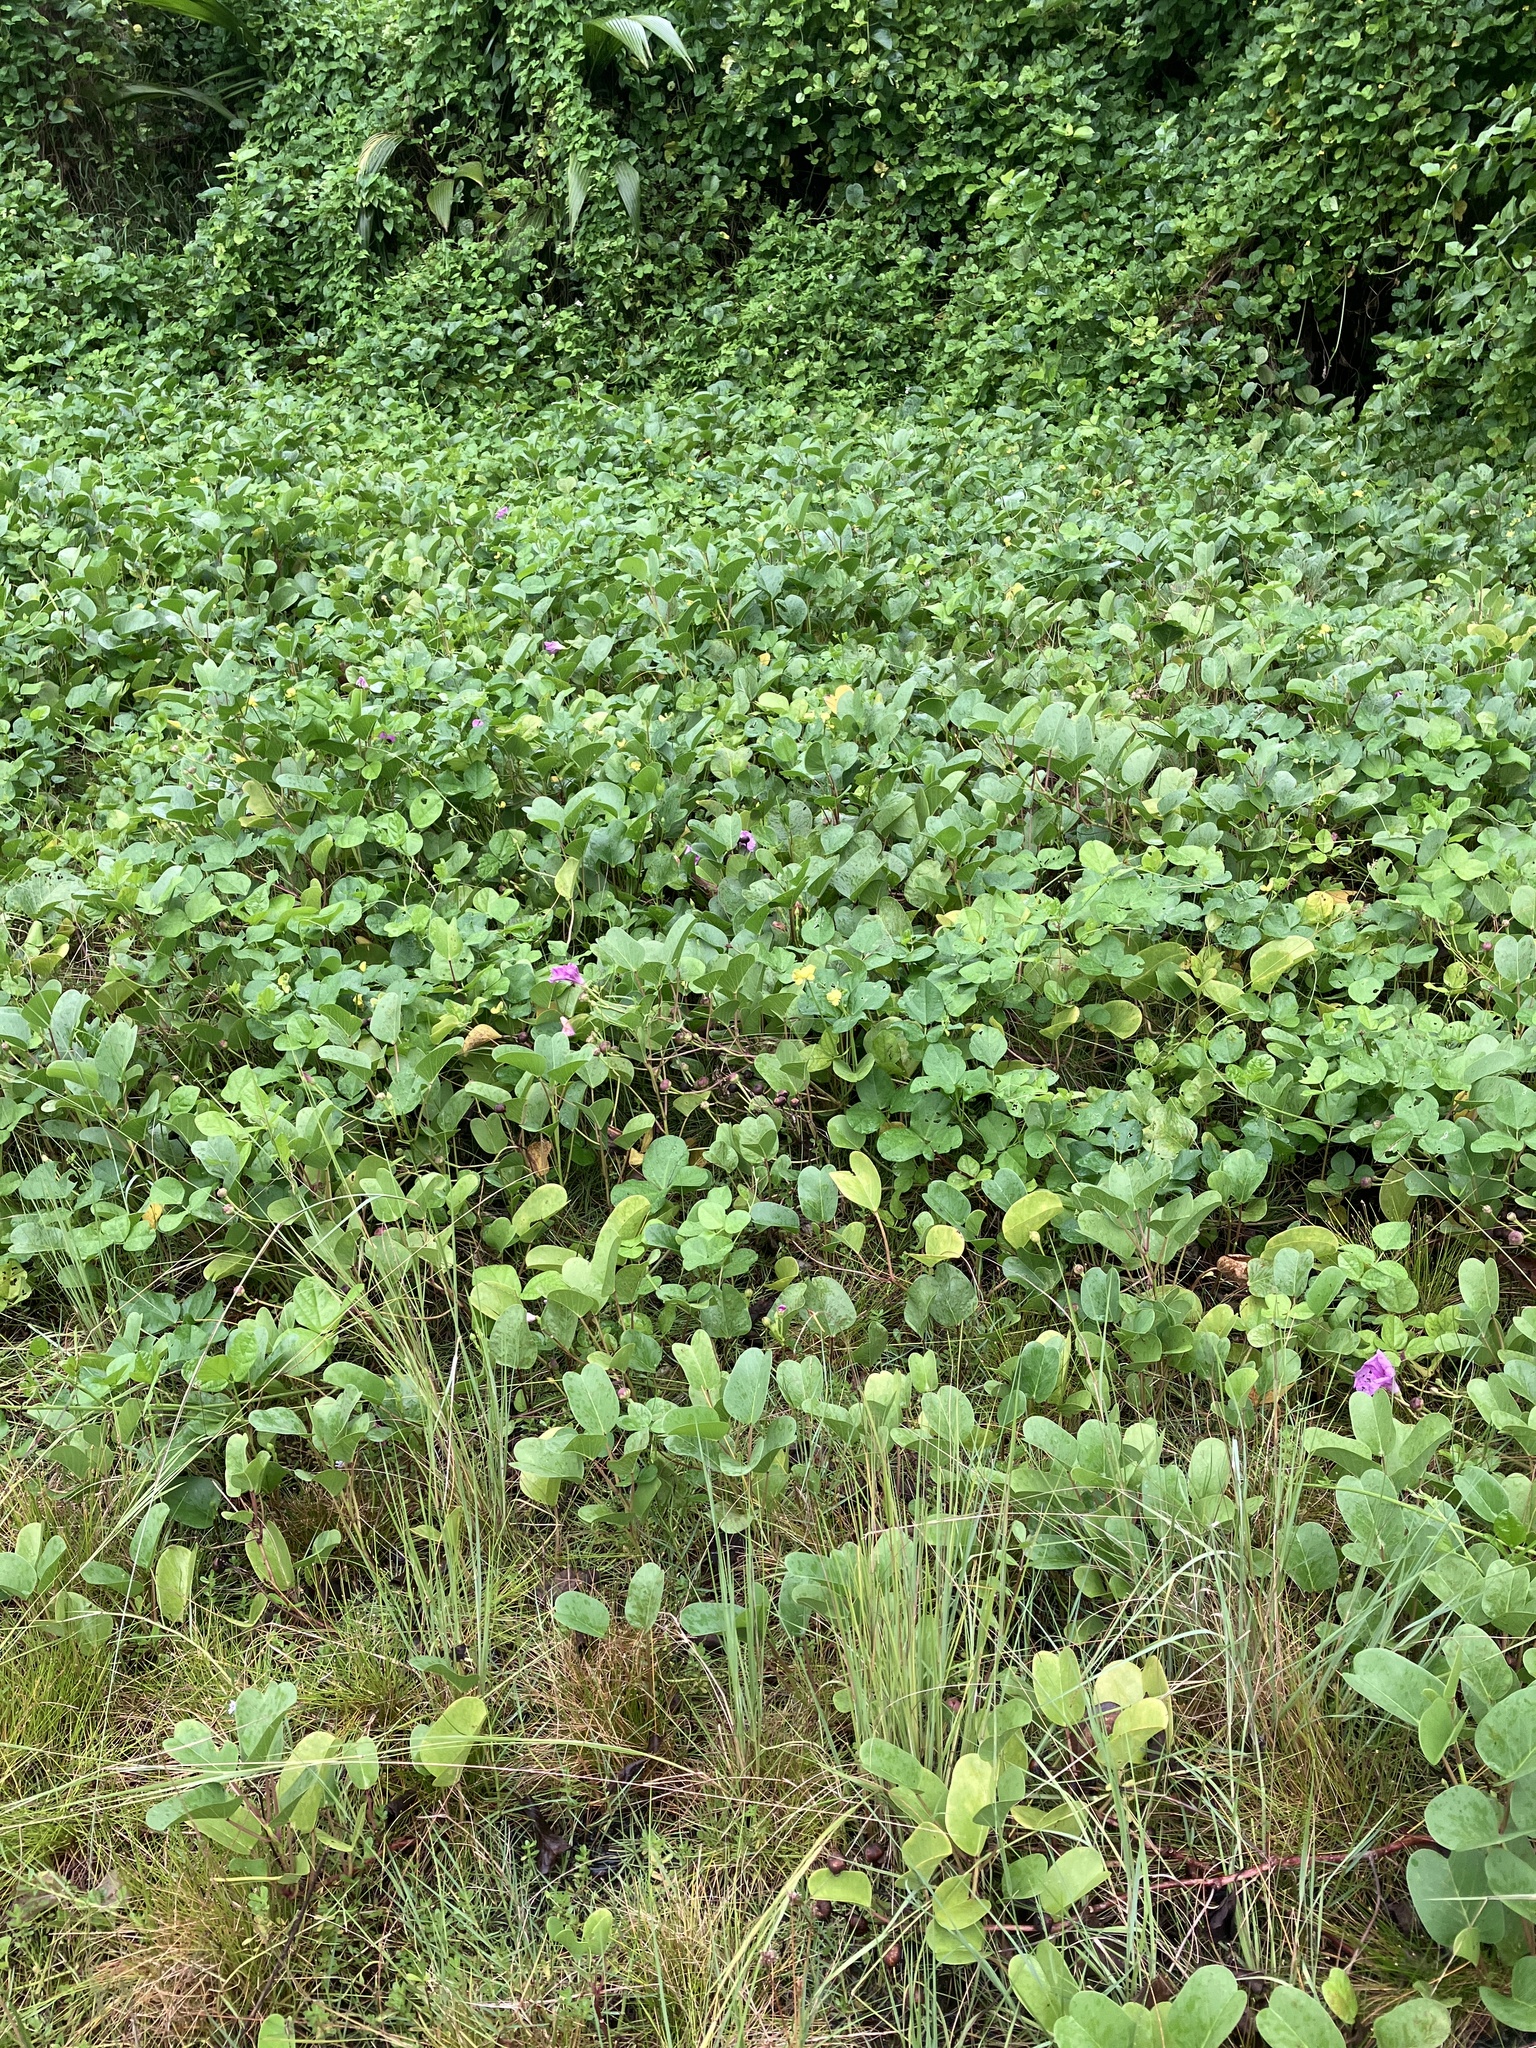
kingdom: Plantae
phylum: Tracheophyta
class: Magnoliopsida
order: Solanales
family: Convolvulaceae
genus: Ipomoea
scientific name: Ipomoea pes-caprae
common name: Beach morning glory
